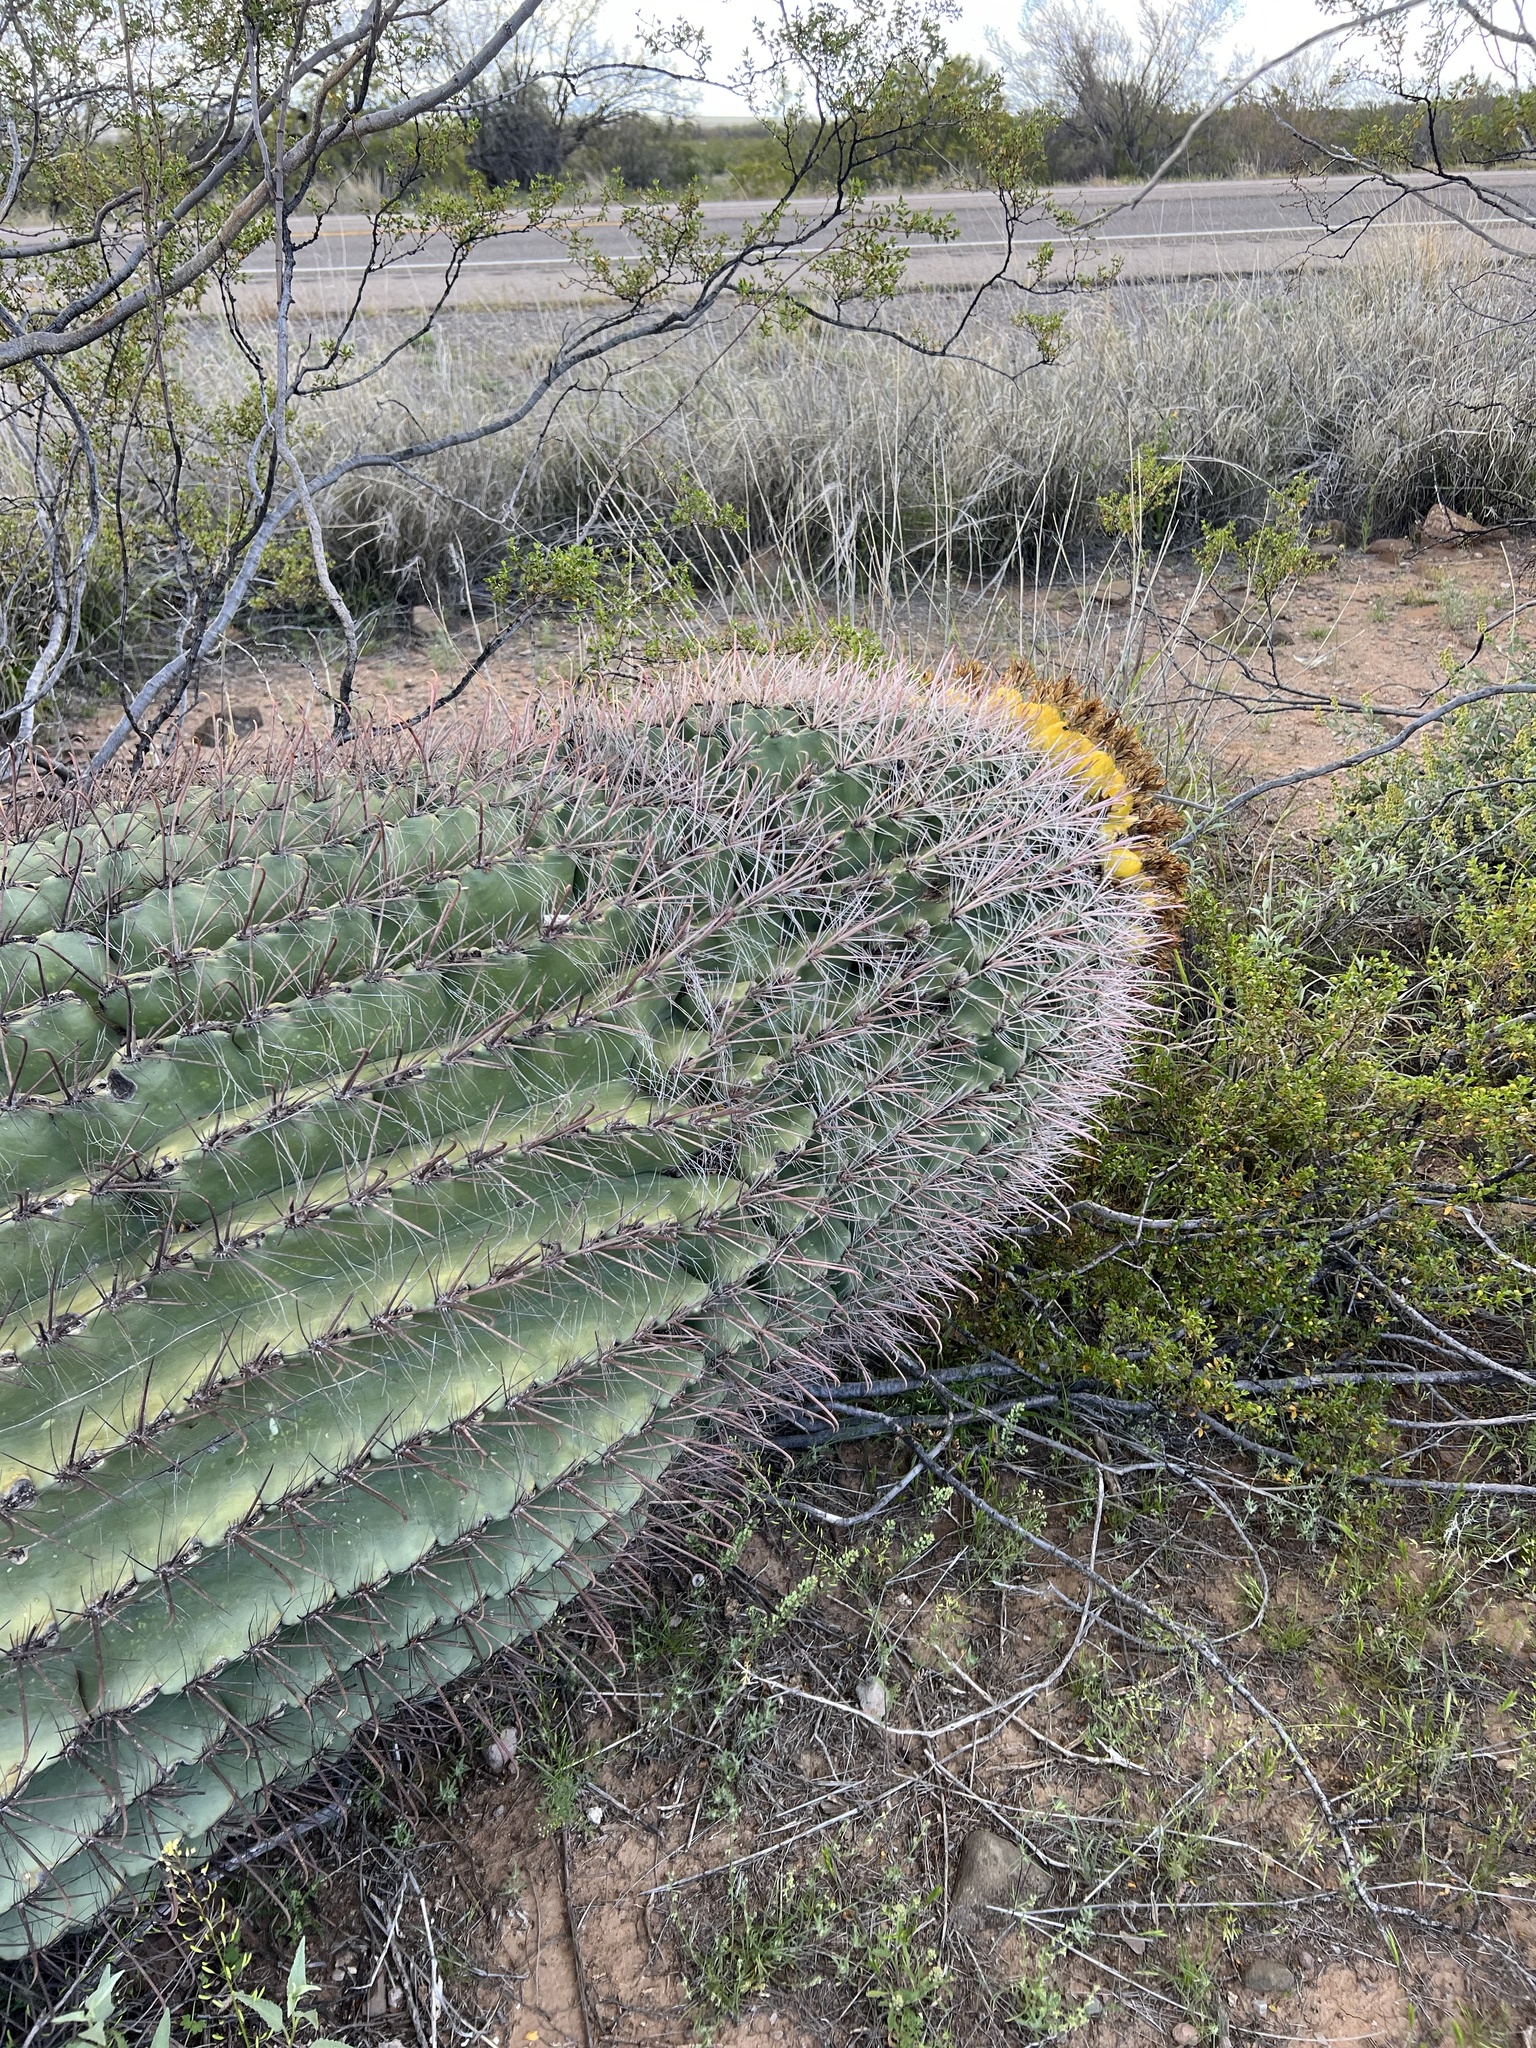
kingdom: Plantae
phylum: Tracheophyta
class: Magnoliopsida
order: Caryophyllales
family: Cactaceae
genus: Ferocactus
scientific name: Ferocactus wislizeni
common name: Candy barrel cactus
